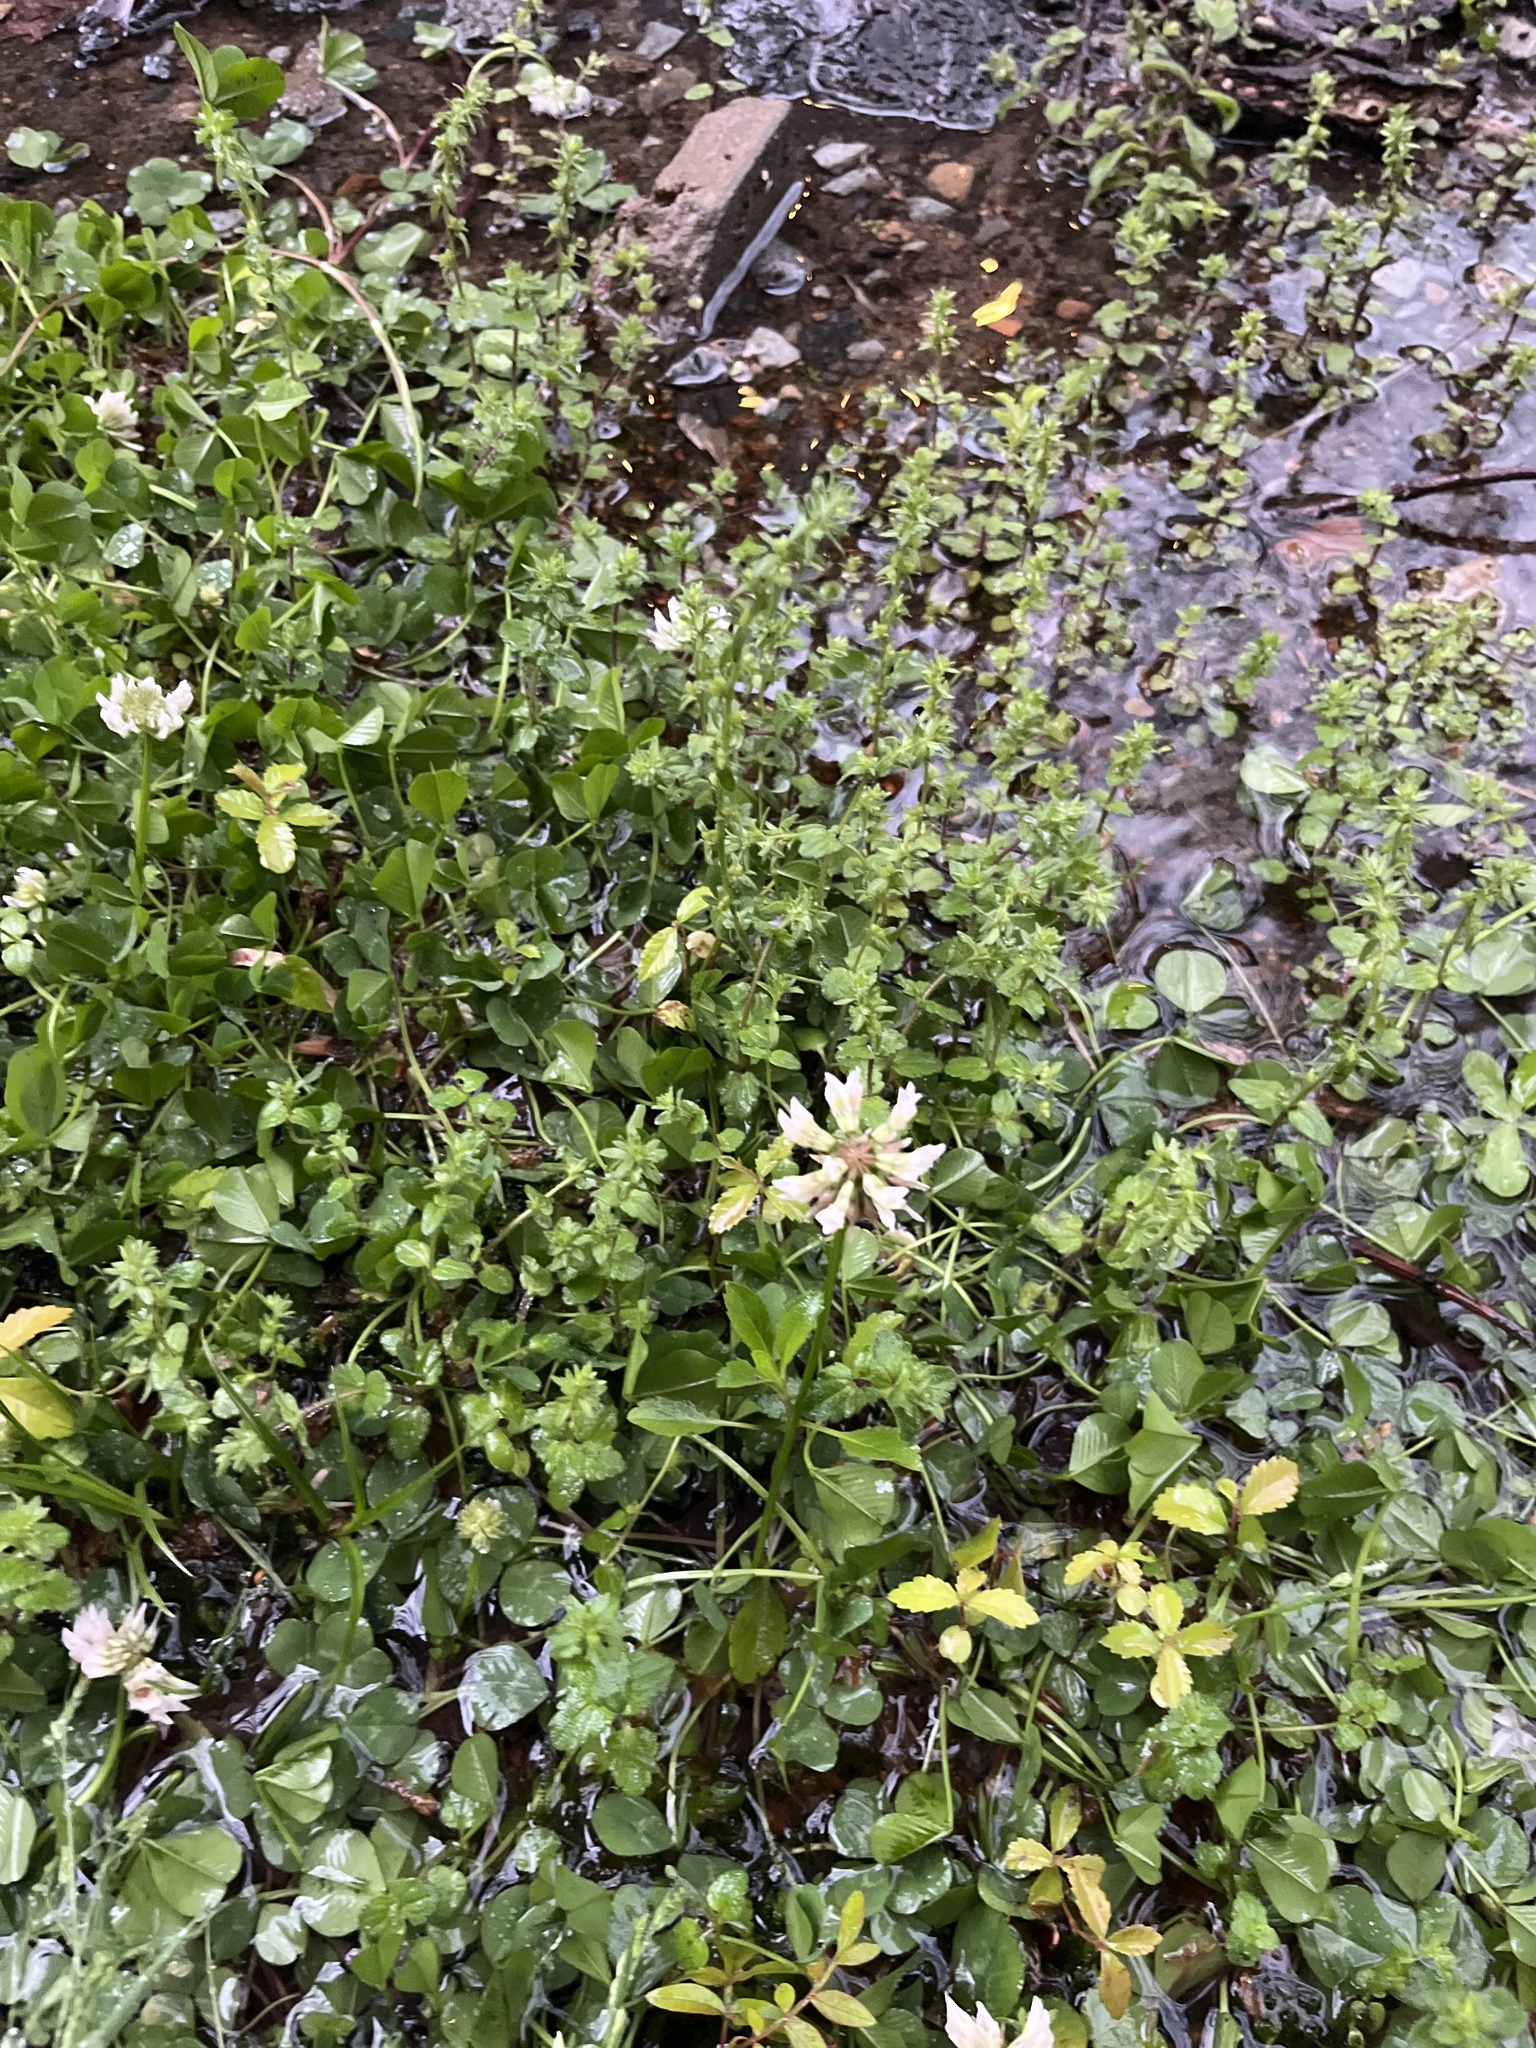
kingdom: Plantae
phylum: Tracheophyta
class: Magnoliopsida
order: Fabales
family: Fabaceae
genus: Trifolium
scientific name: Trifolium repens
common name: White clover
